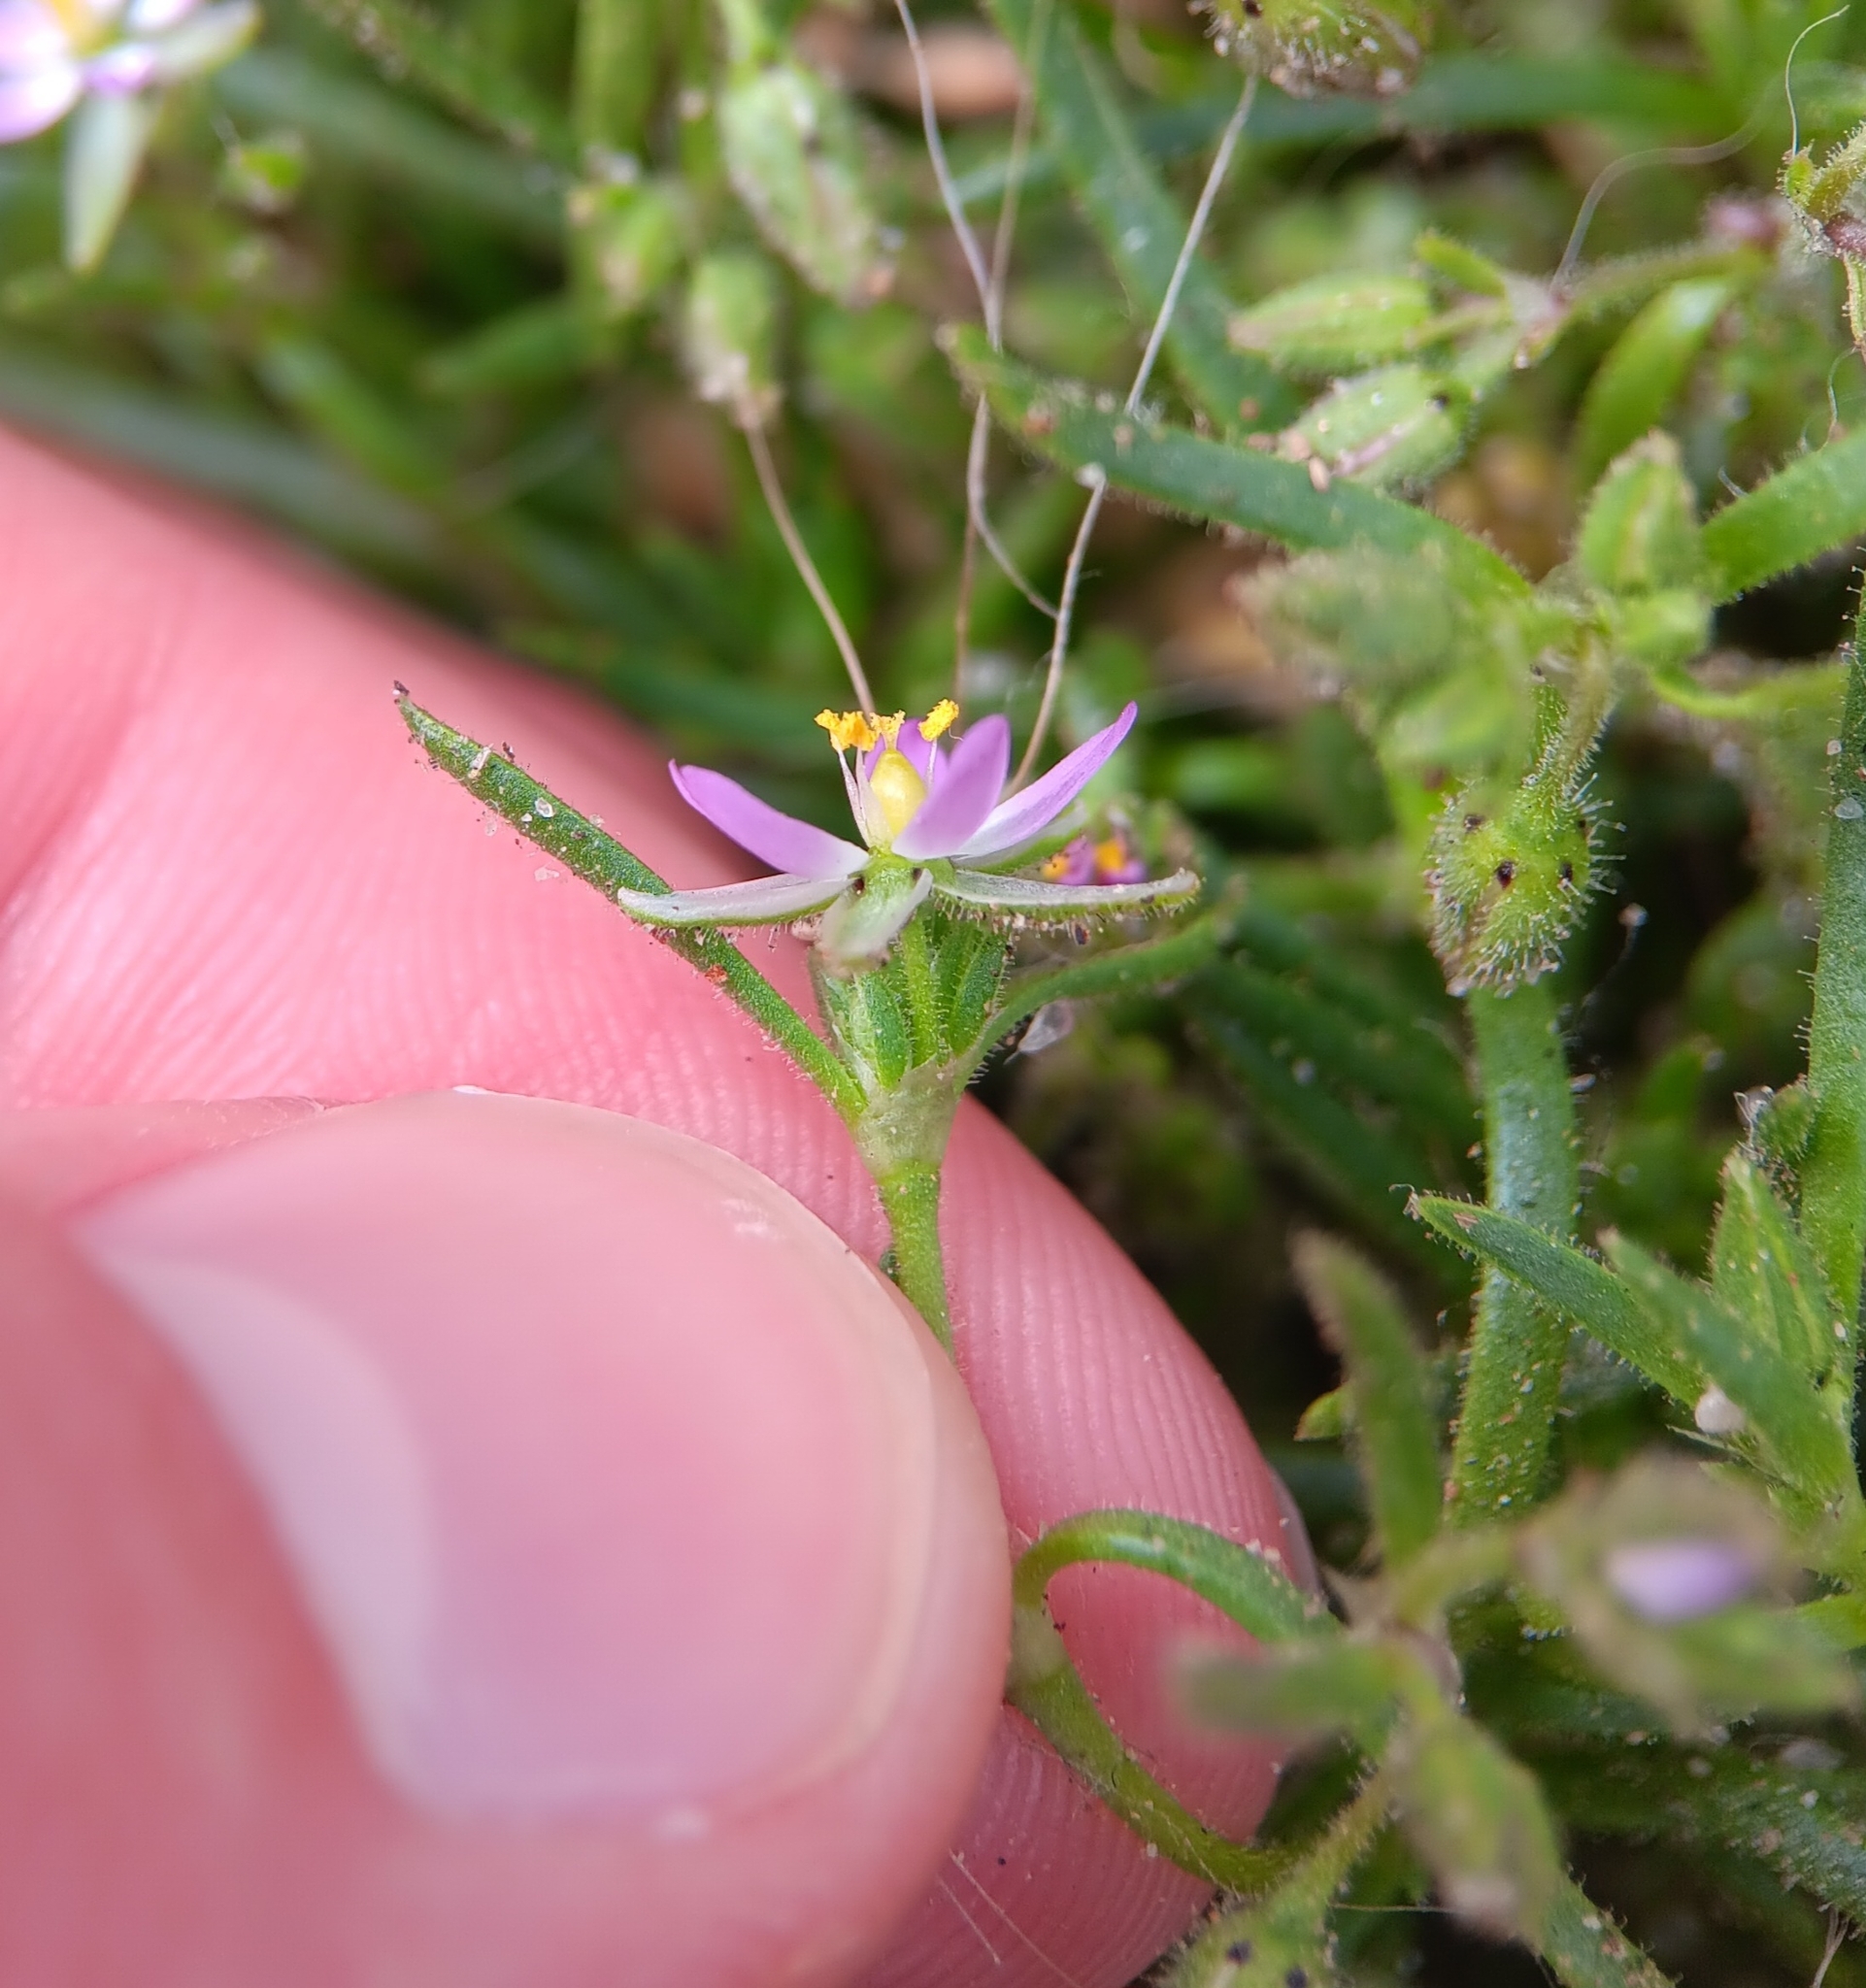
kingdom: Plantae
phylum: Tracheophyta
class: Magnoliopsida
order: Caryophyllales
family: Caryophyllaceae
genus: Spergularia
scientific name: Spergularia marina
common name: Lesser sea-spurrey
